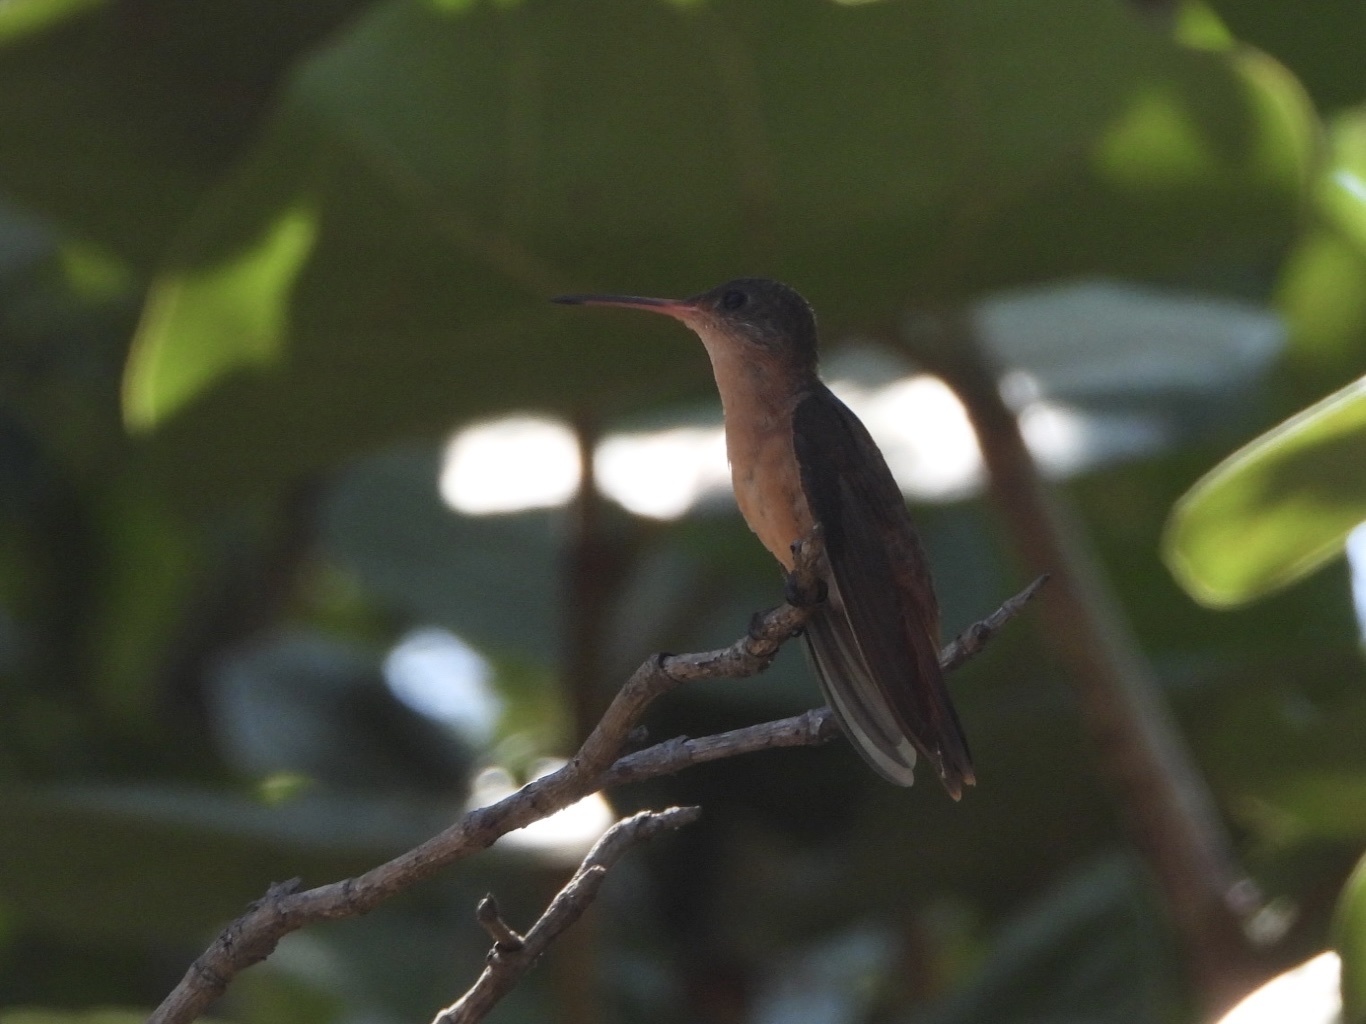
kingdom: Animalia
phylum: Chordata
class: Aves
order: Apodiformes
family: Trochilidae
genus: Amazilia
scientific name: Amazilia rutila
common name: Cinnamon hummingbird
